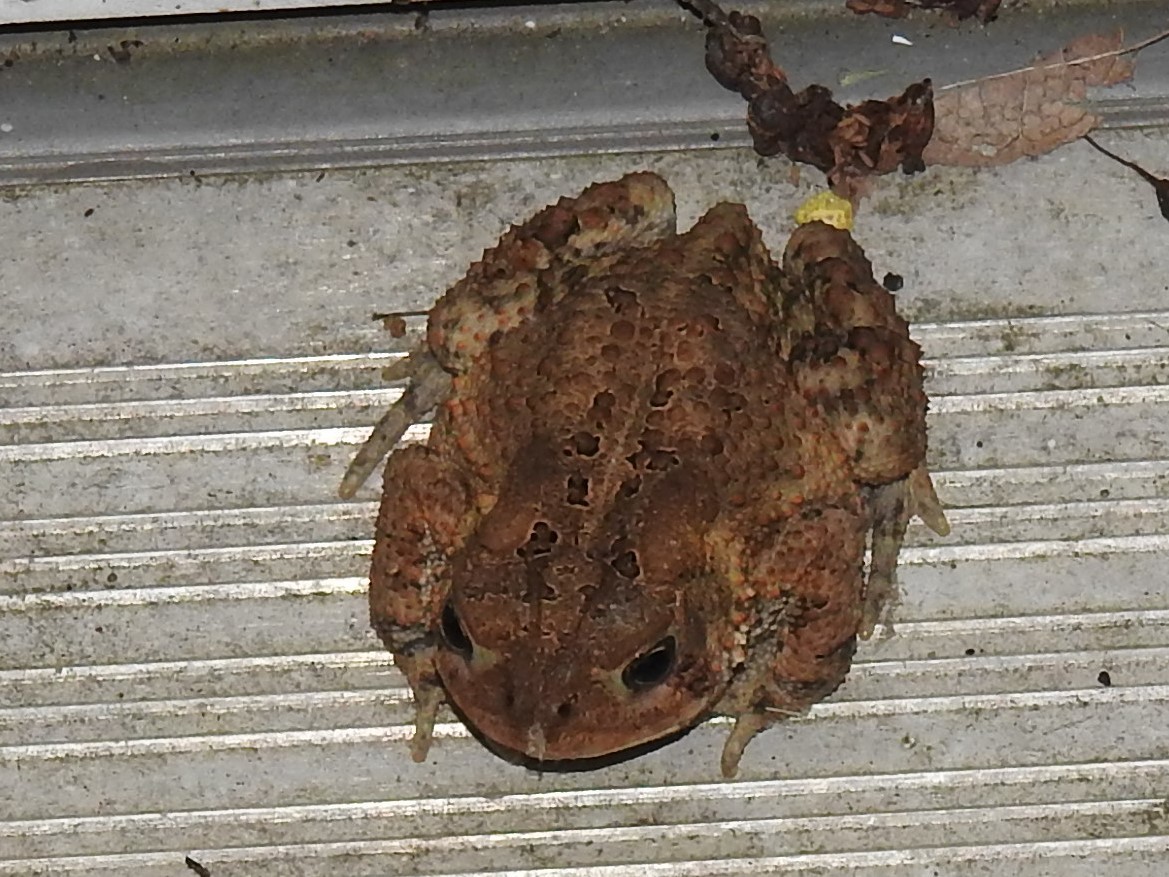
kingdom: Animalia
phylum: Chordata
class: Amphibia
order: Anura
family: Bufonidae
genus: Anaxyrus
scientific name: Anaxyrus americanus
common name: American toad
